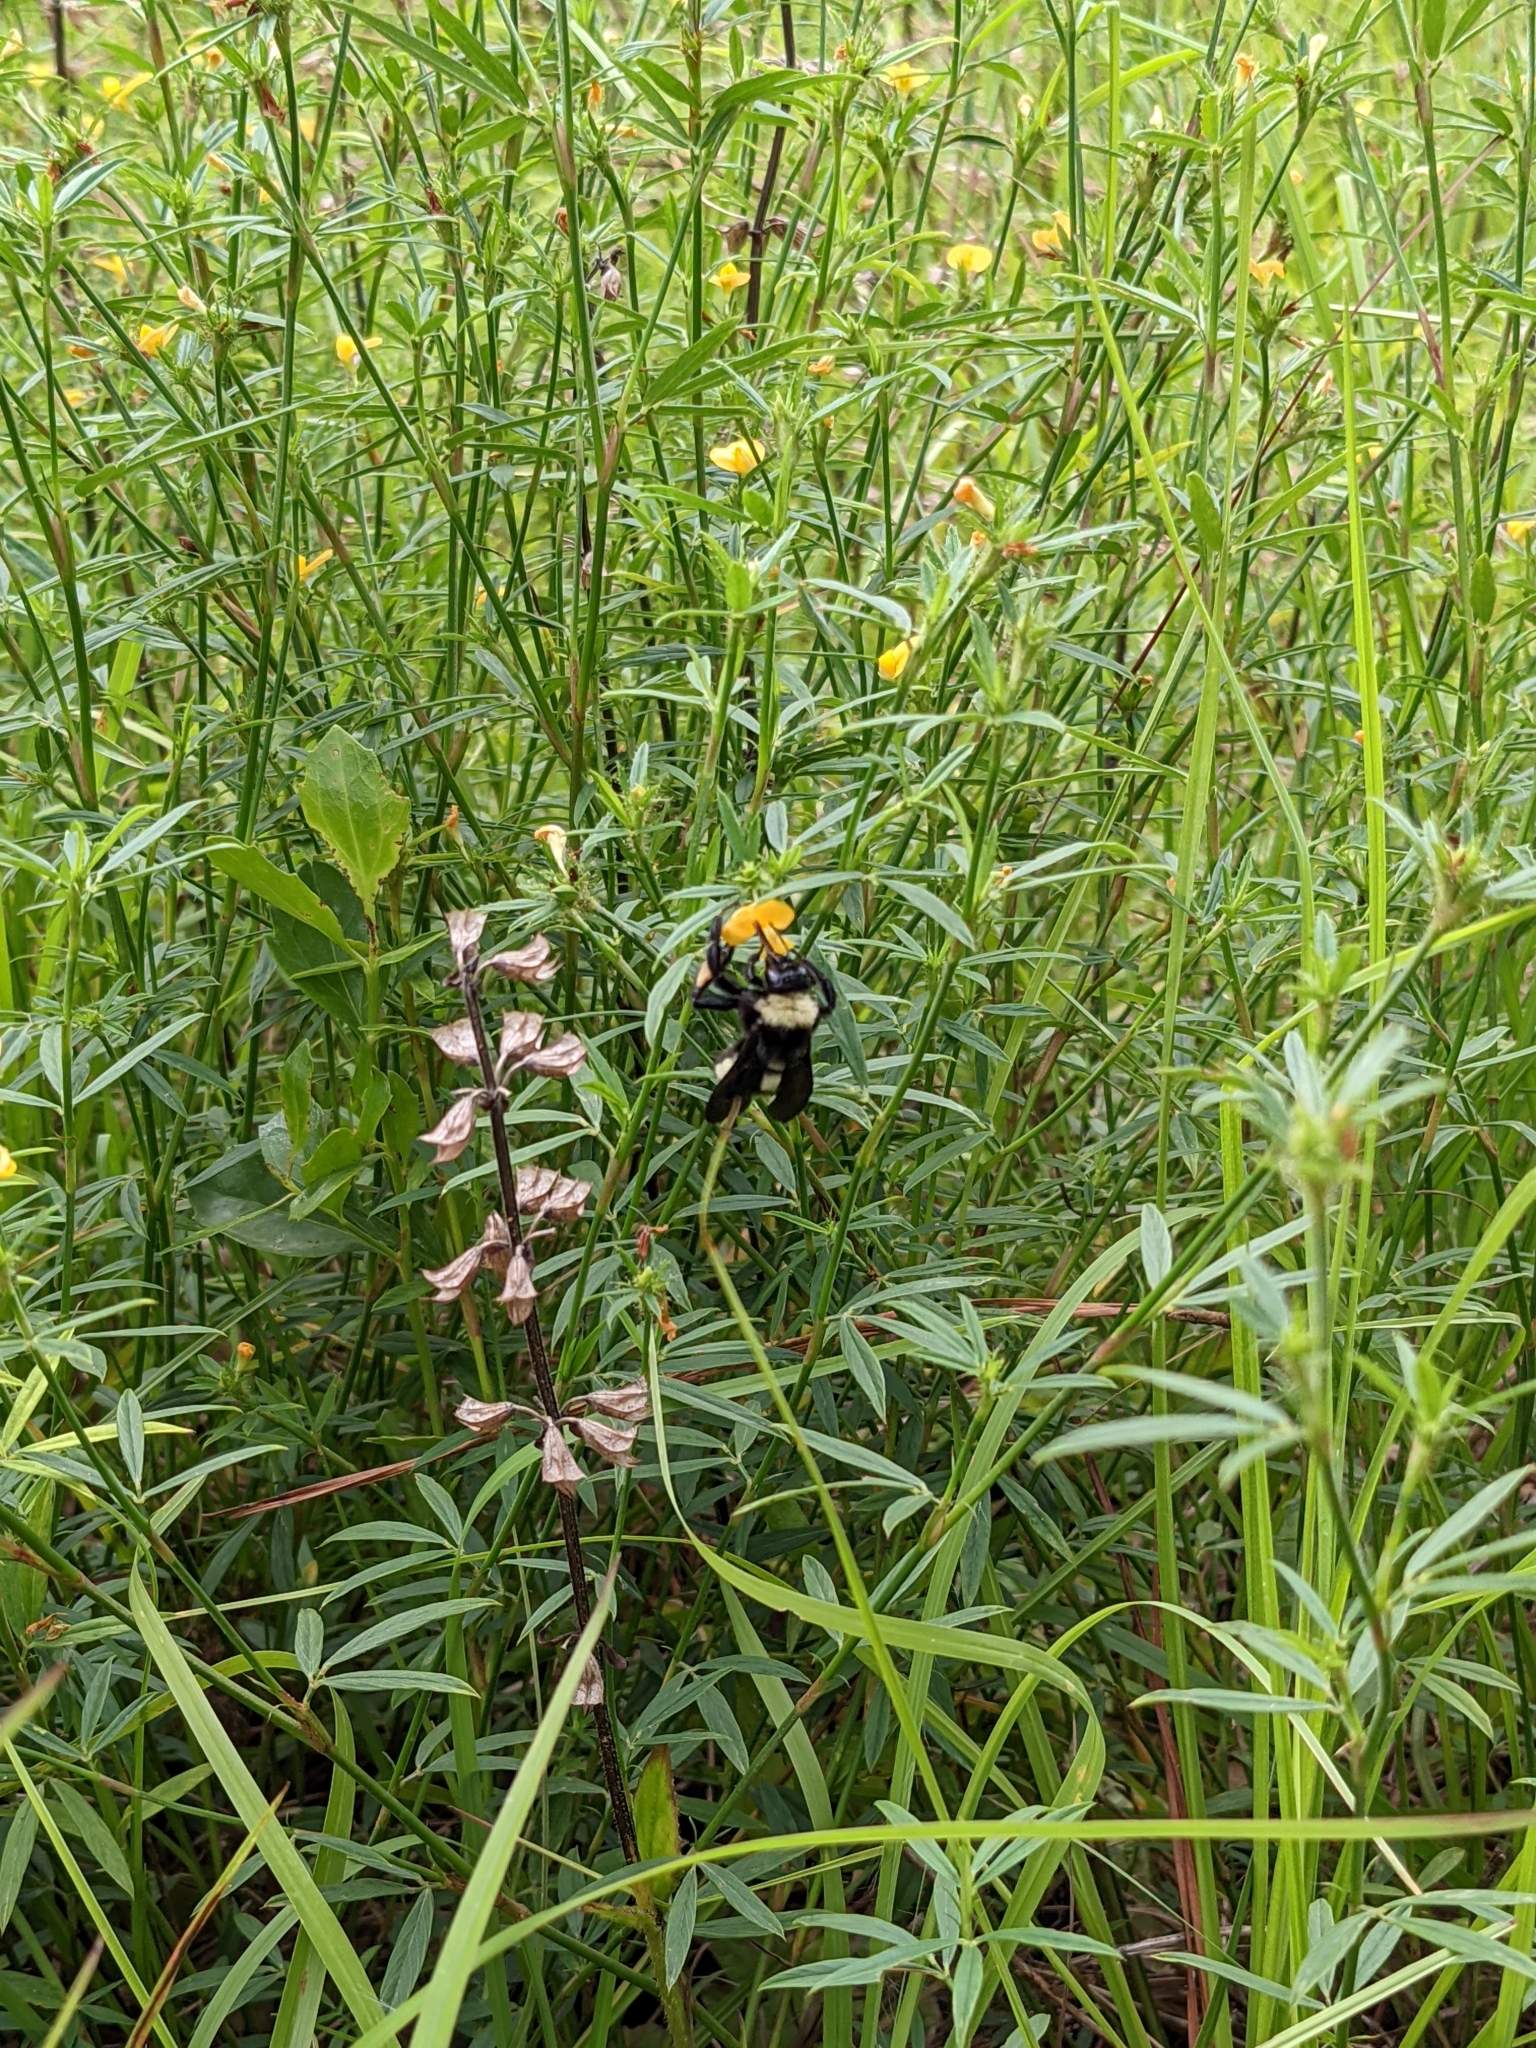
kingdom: Animalia
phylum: Arthropoda
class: Insecta
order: Hymenoptera
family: Apidae
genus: Bombus
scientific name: Bombus pensylvanicus
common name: Bumble bee
